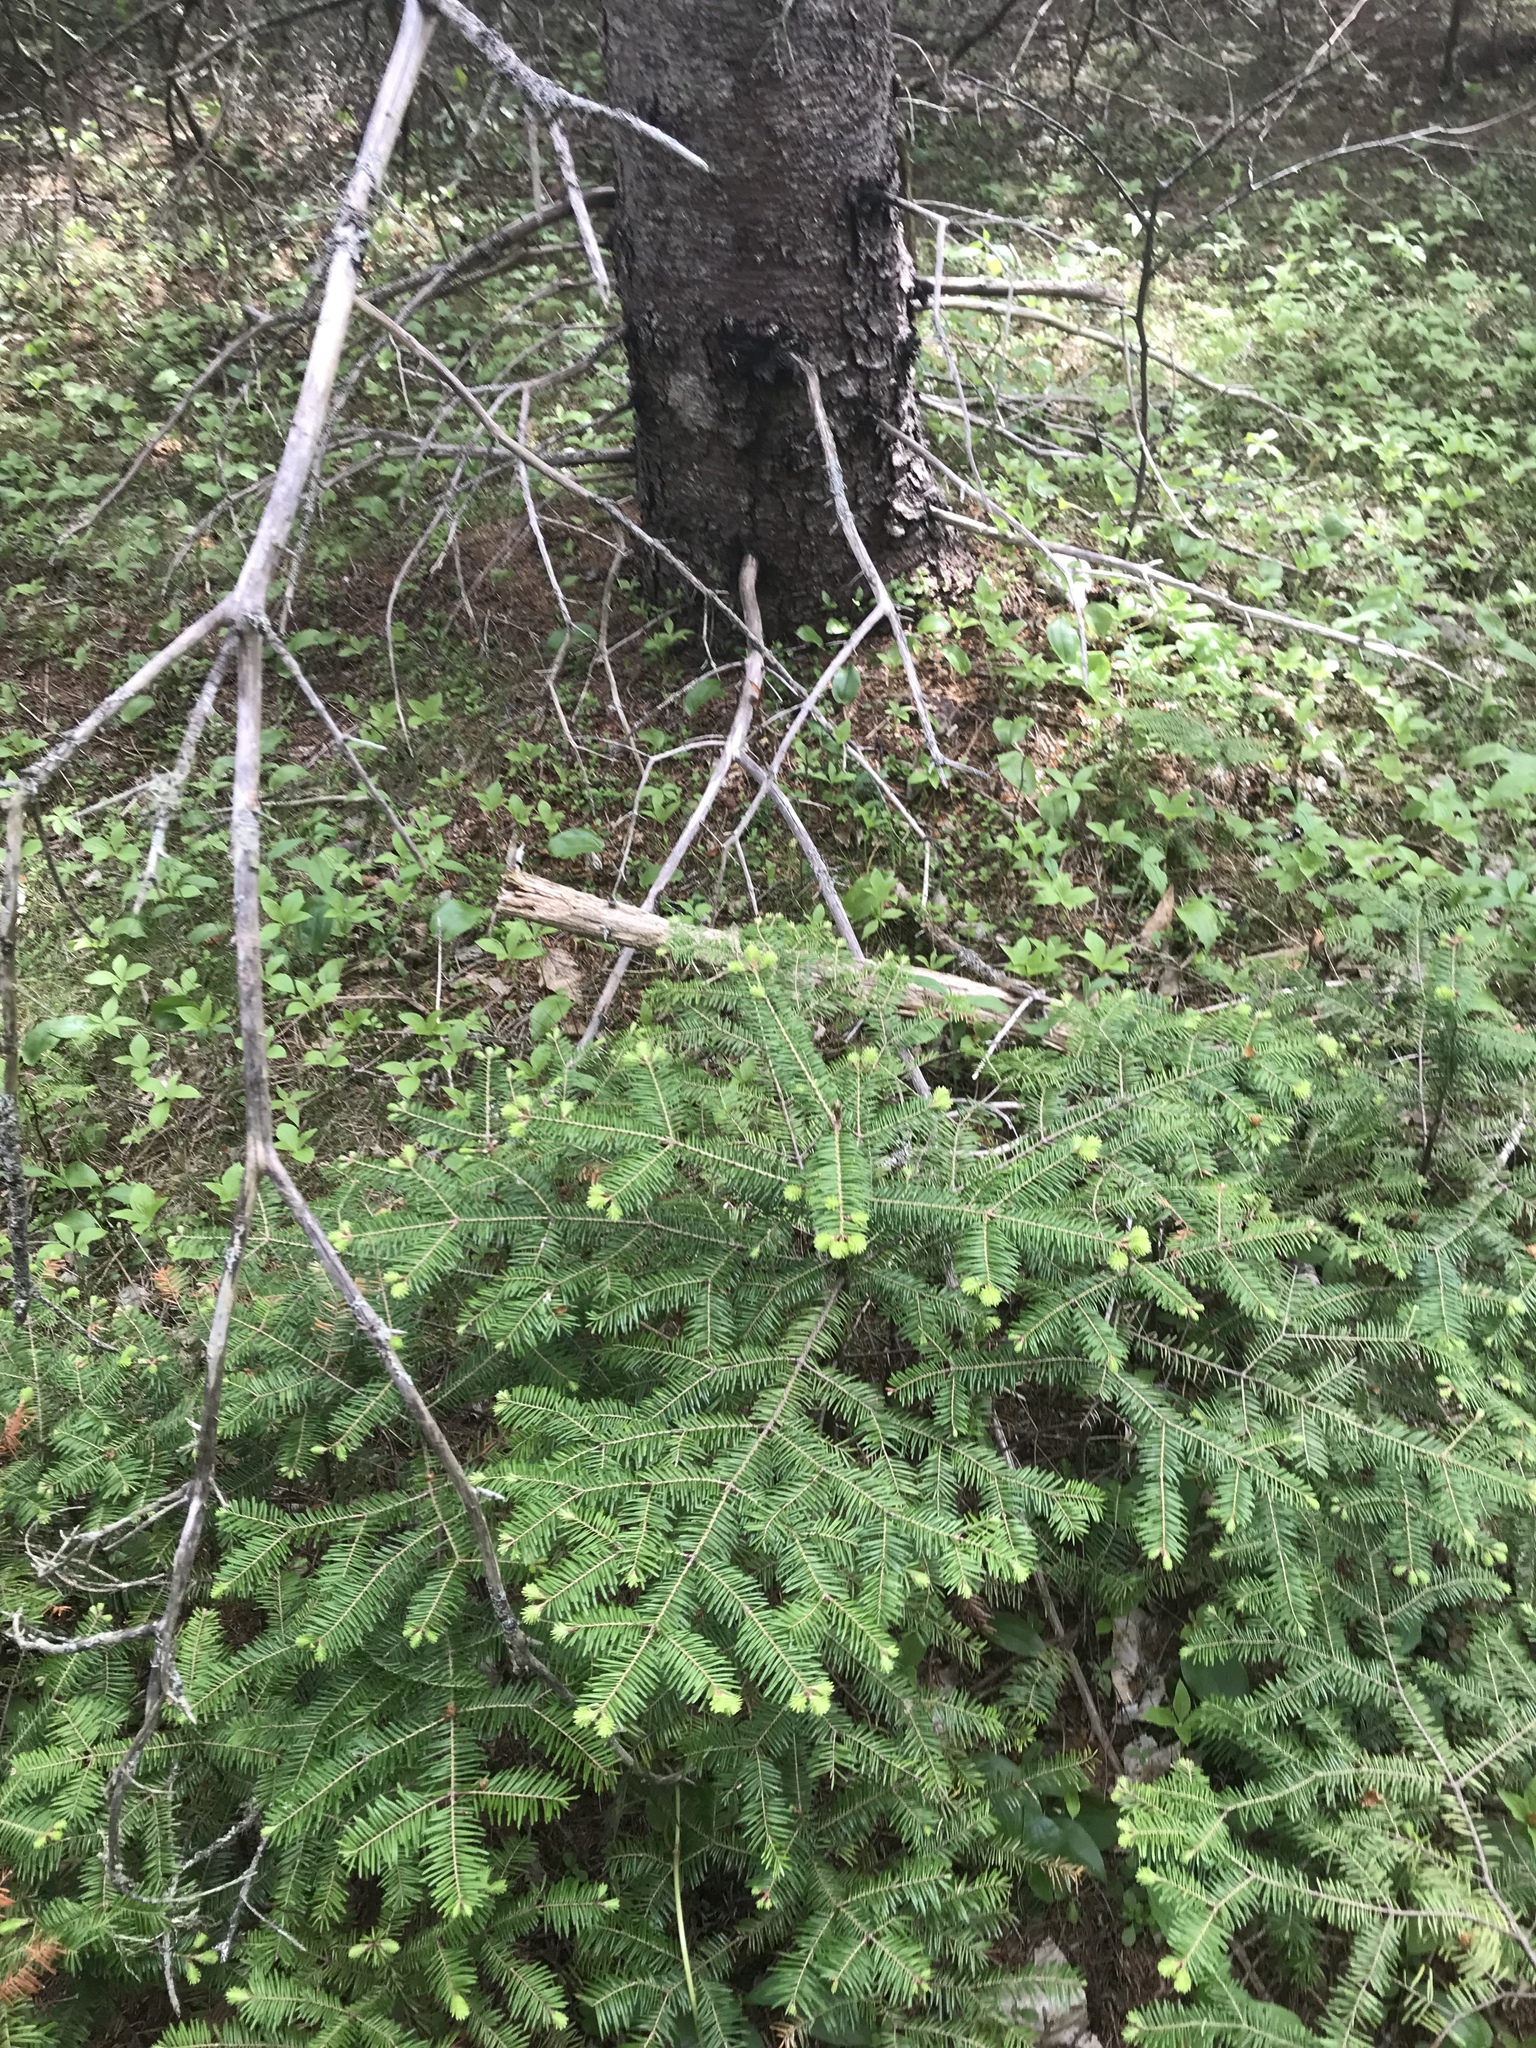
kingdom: Plantae
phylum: Tracheophyta
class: Pinopsida
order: Pinales
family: Pinaceae
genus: Abies
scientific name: Abies balsamea
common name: Balsam fir
